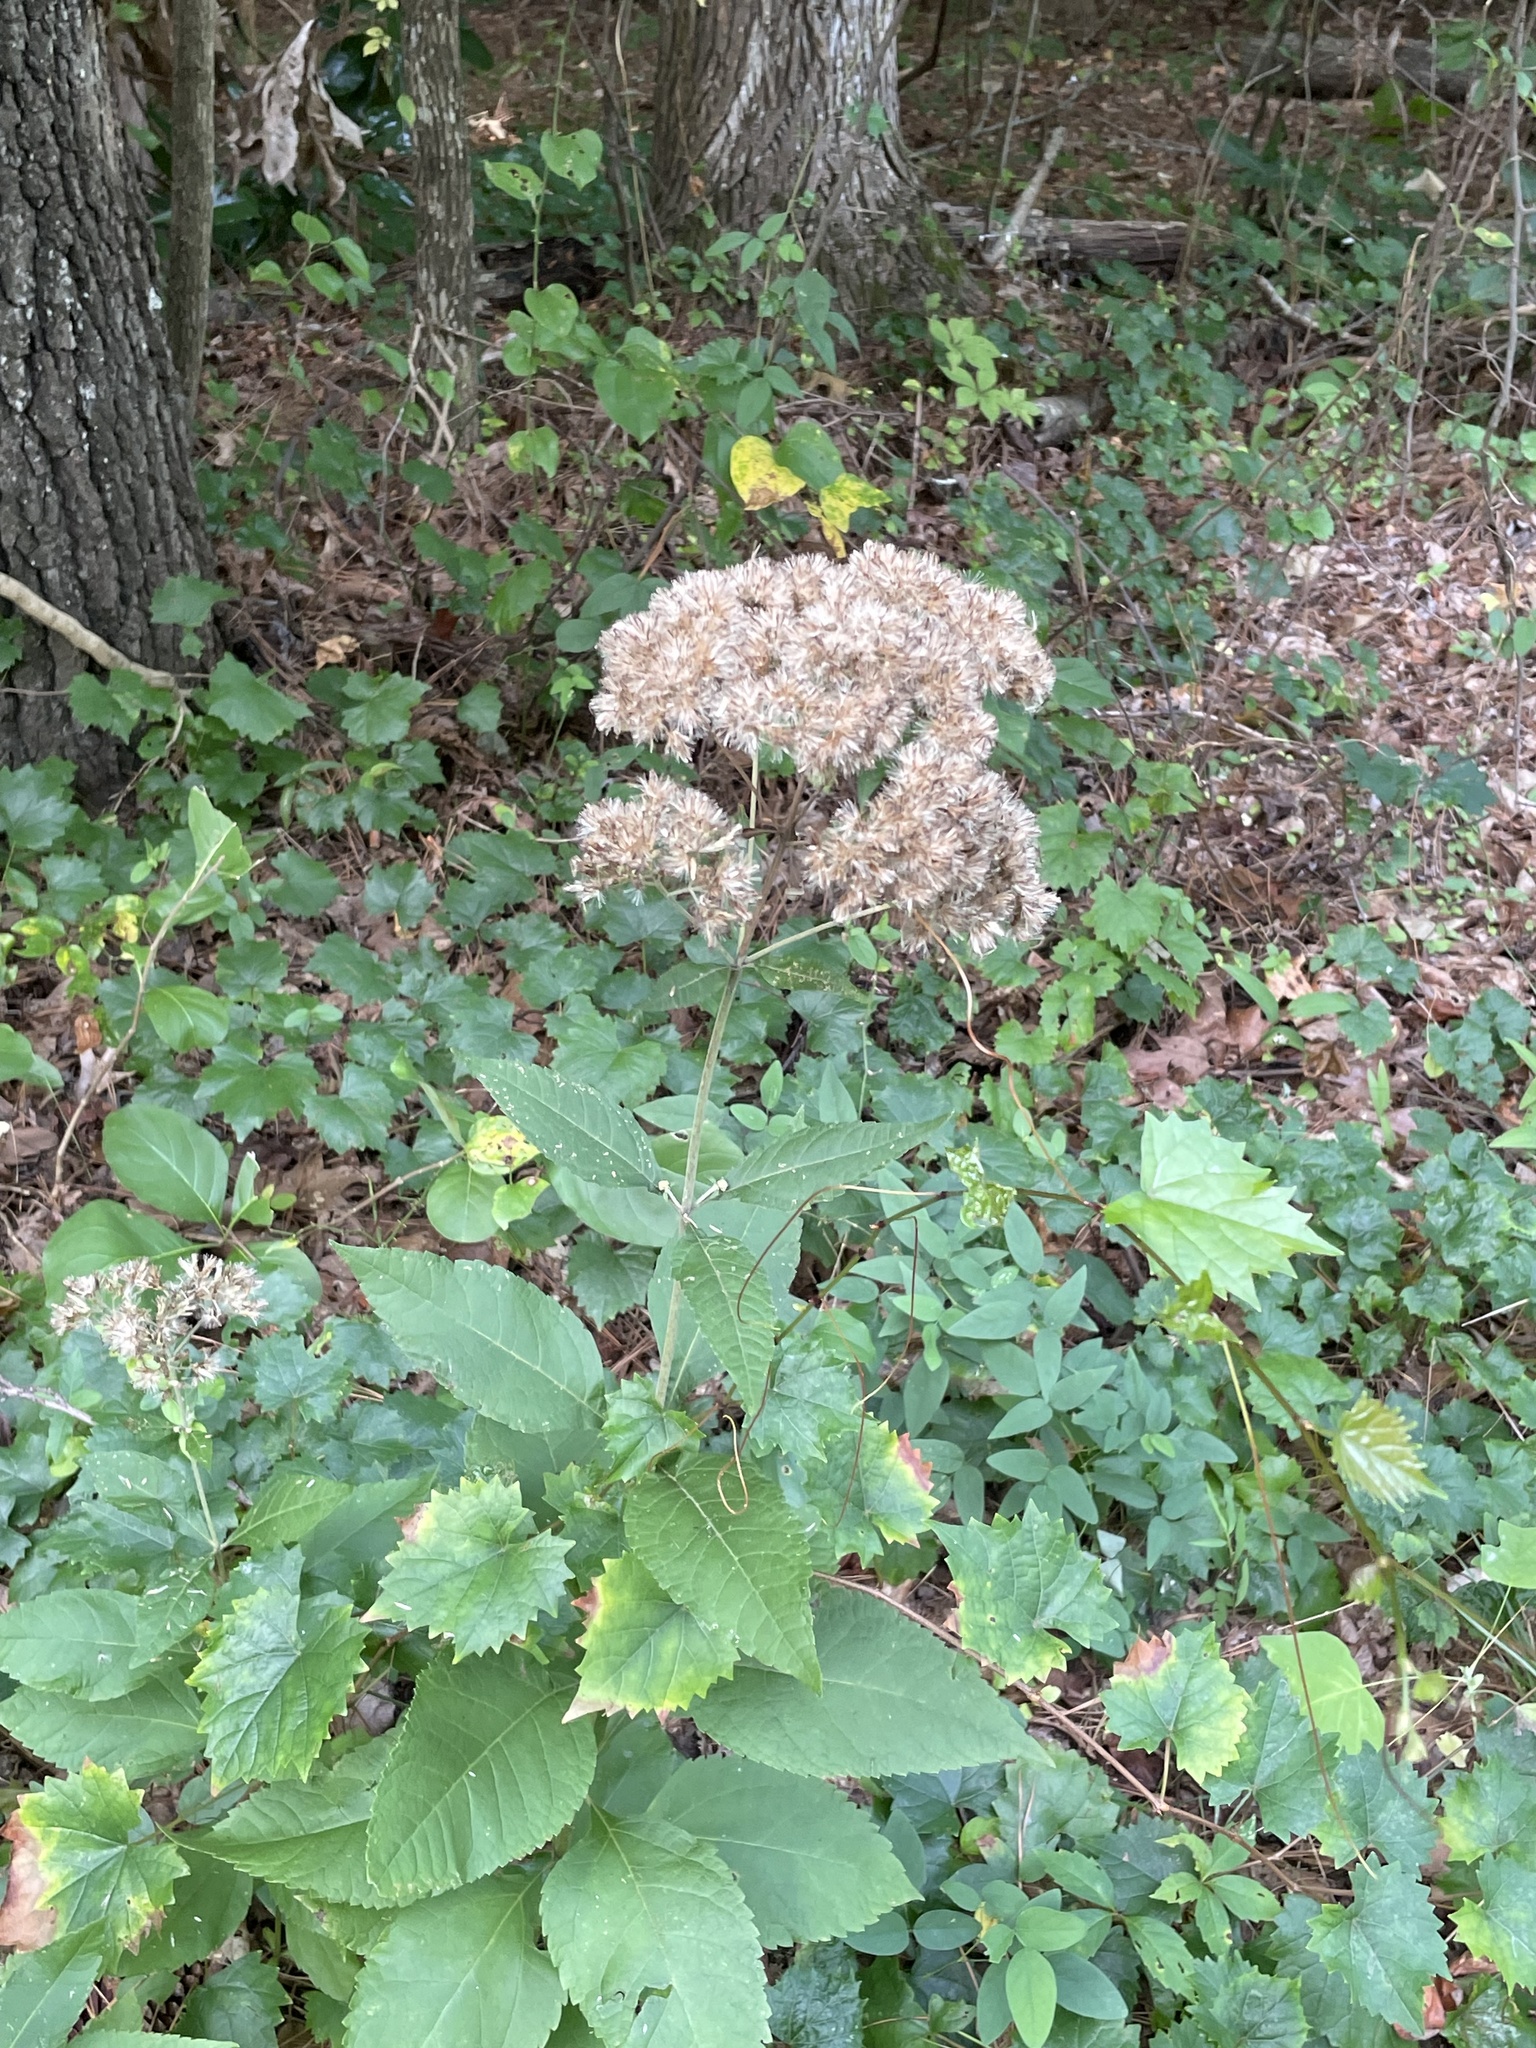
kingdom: Plantae
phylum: Tracheophyta
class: Magnoliopsida
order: Asterales
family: Asteraceae
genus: Eutrochium
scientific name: Eutrochium purpureum
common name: Gravelroot
